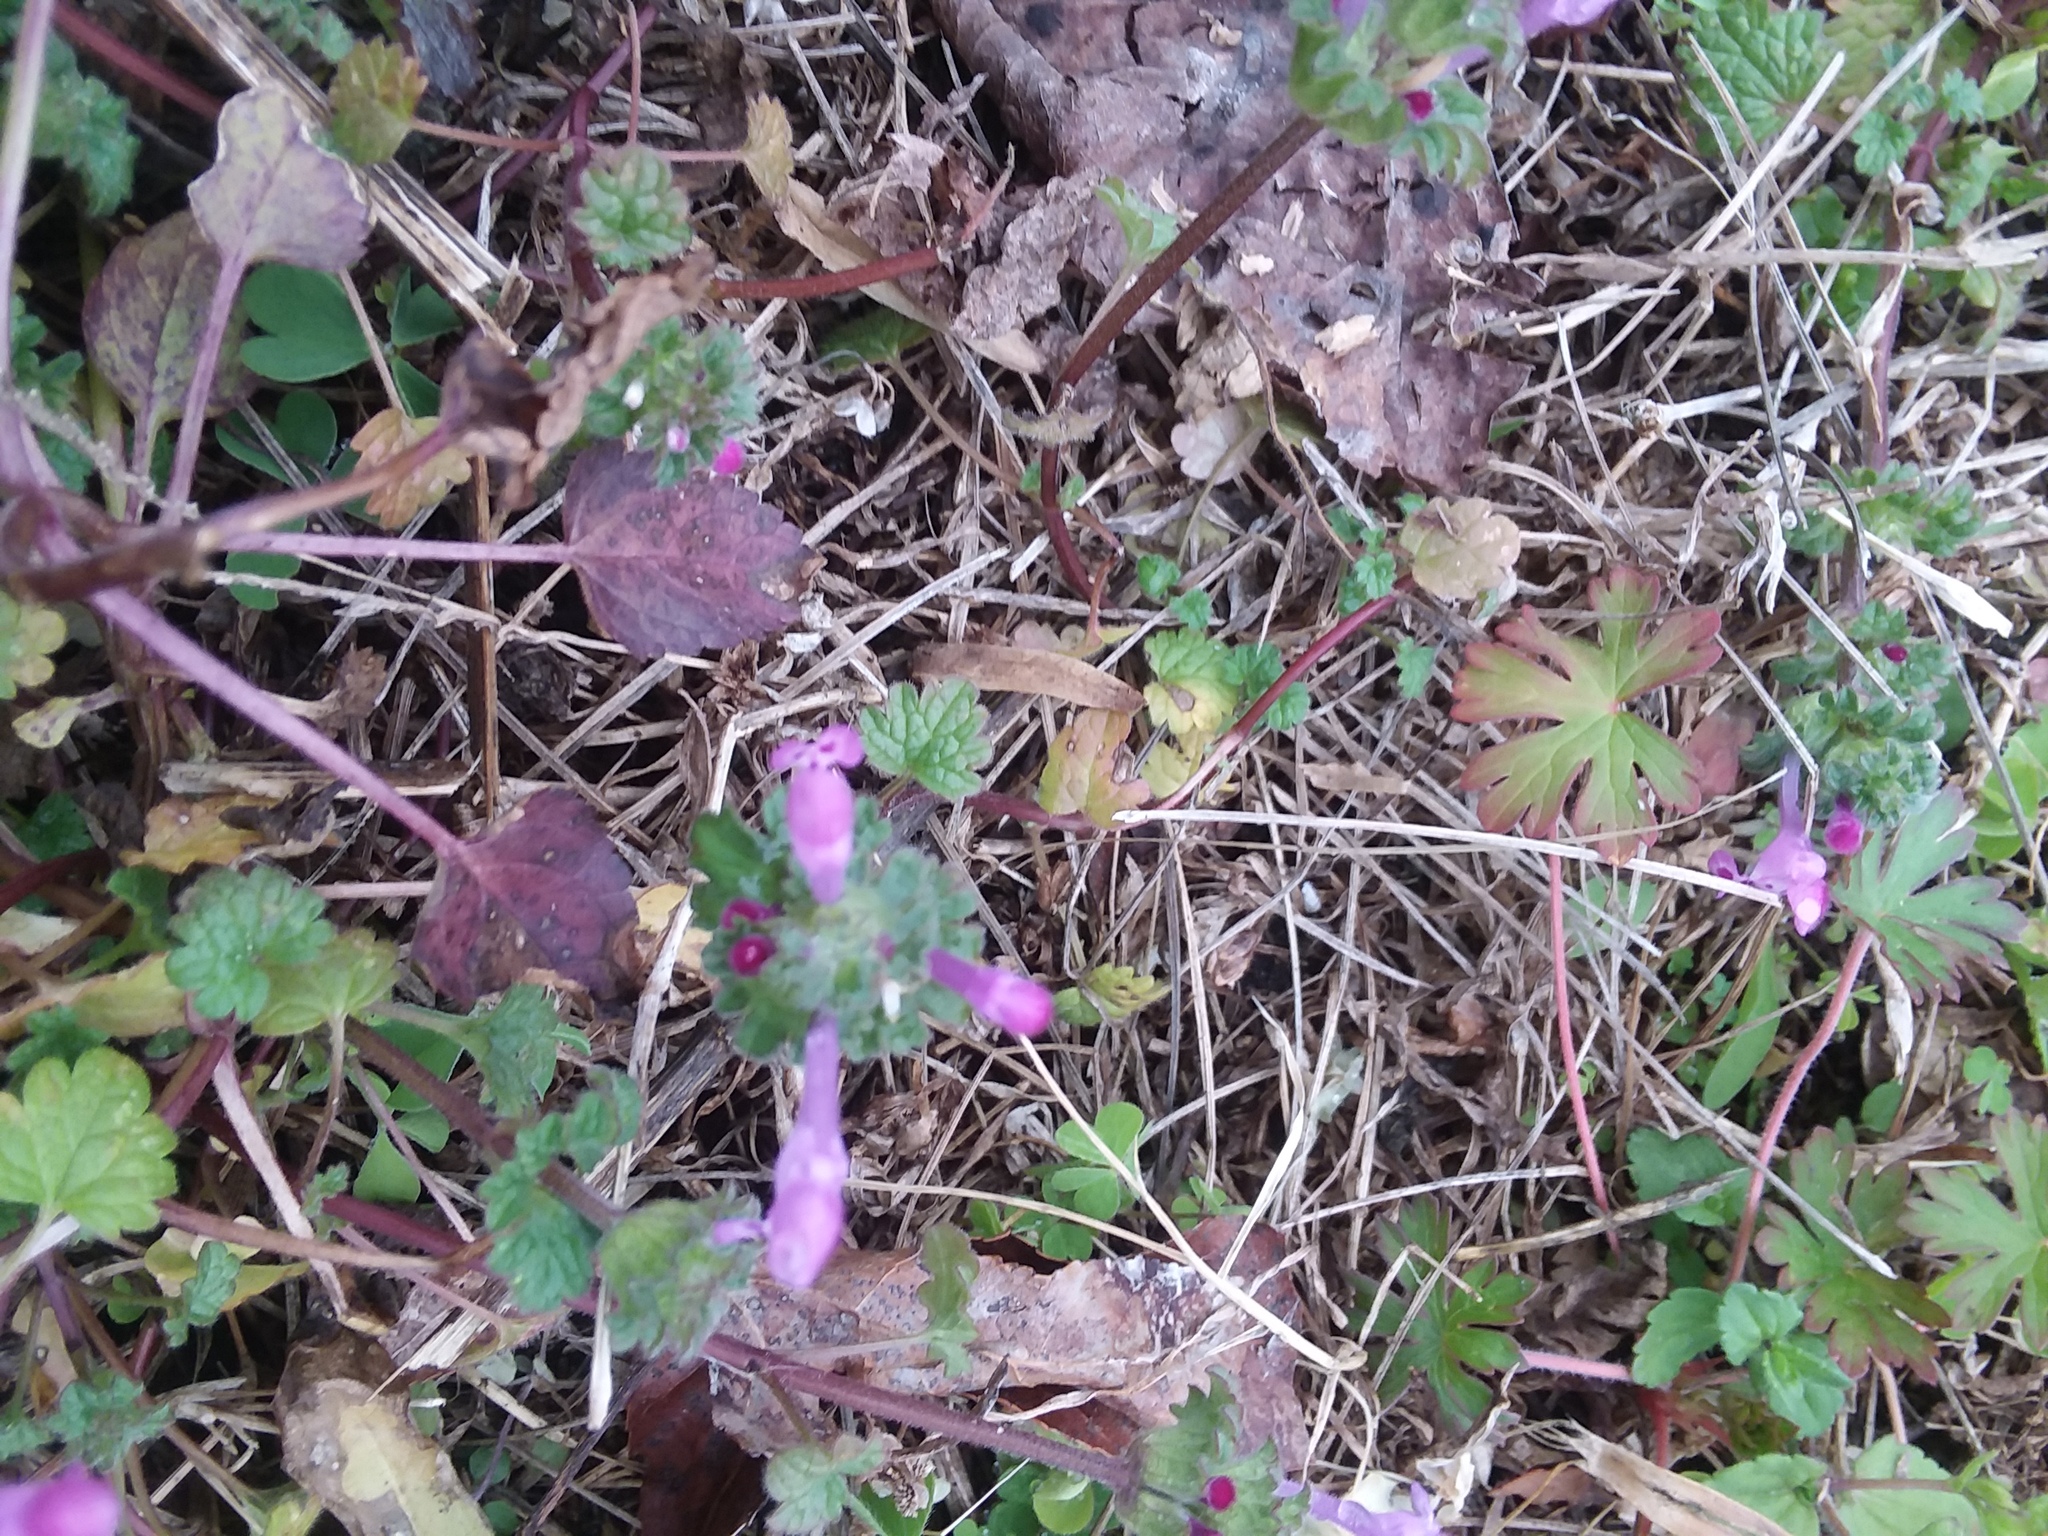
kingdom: Plantae
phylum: Tracheophyta
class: Magnoliopsida
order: Lamiales
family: Lamiaceae
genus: Lamium
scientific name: Lamium amplexicaule
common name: Henbit dead-nettle
